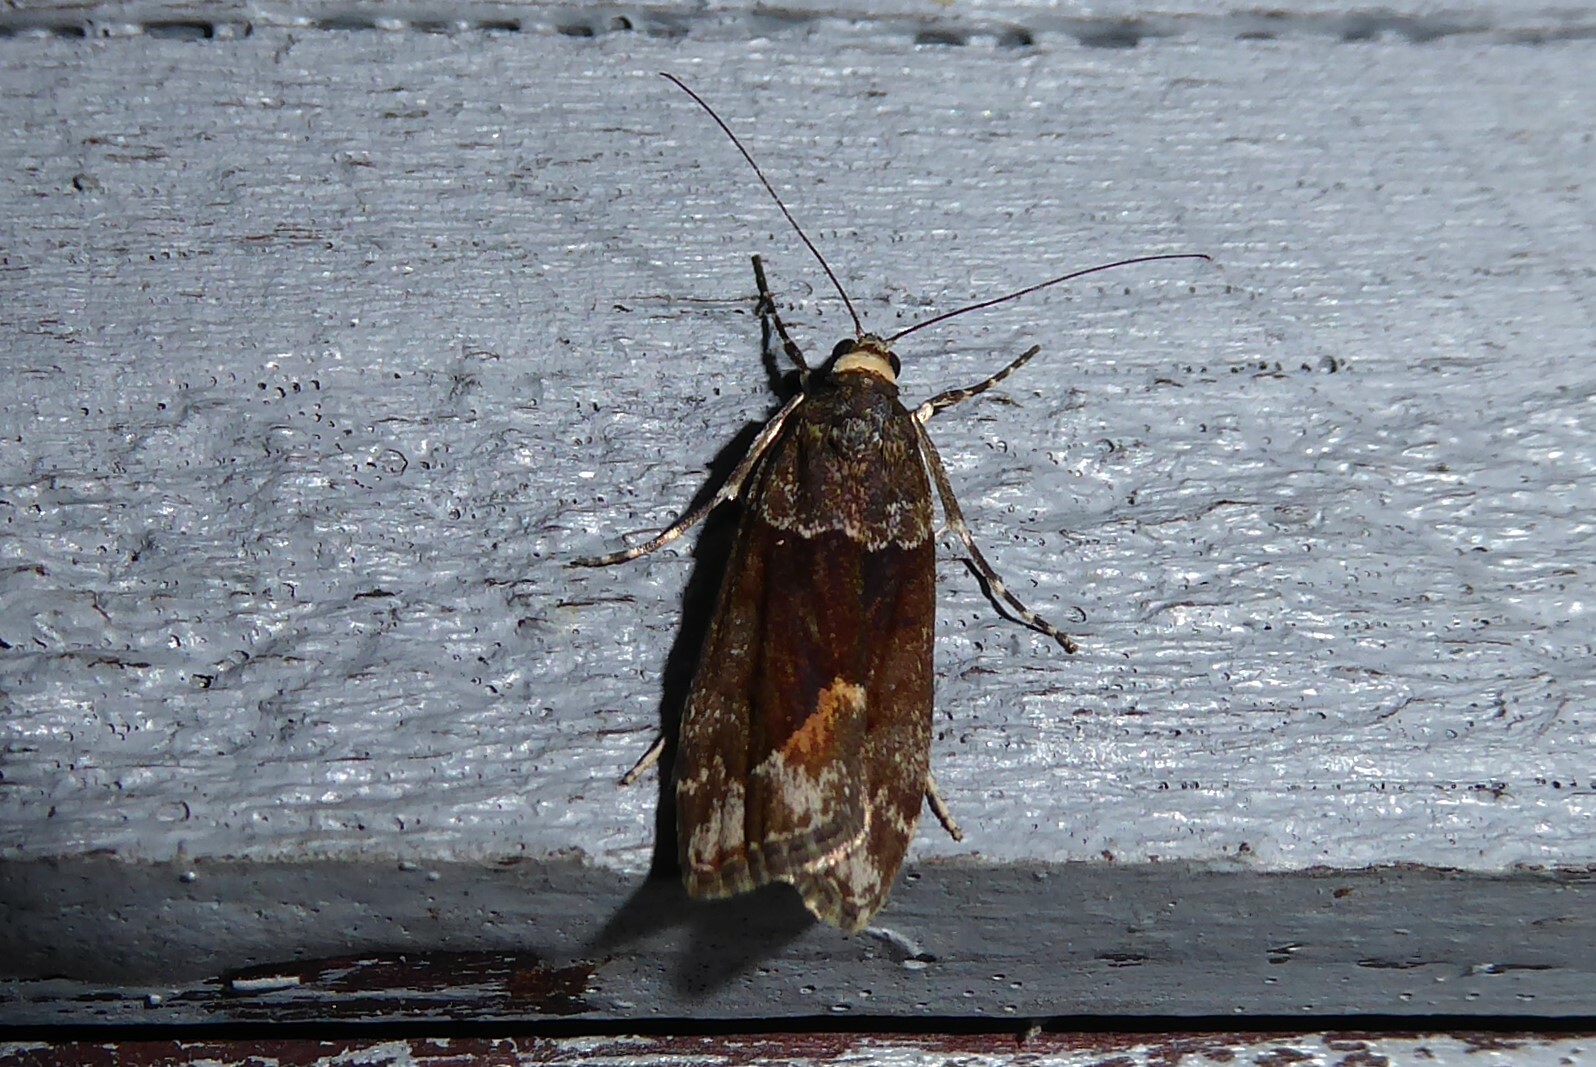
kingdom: Animalia
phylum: Arthropoda
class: Insecta
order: Lepidoptera
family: Crambidae
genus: Eudonia
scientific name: Eudonia submarginalis
